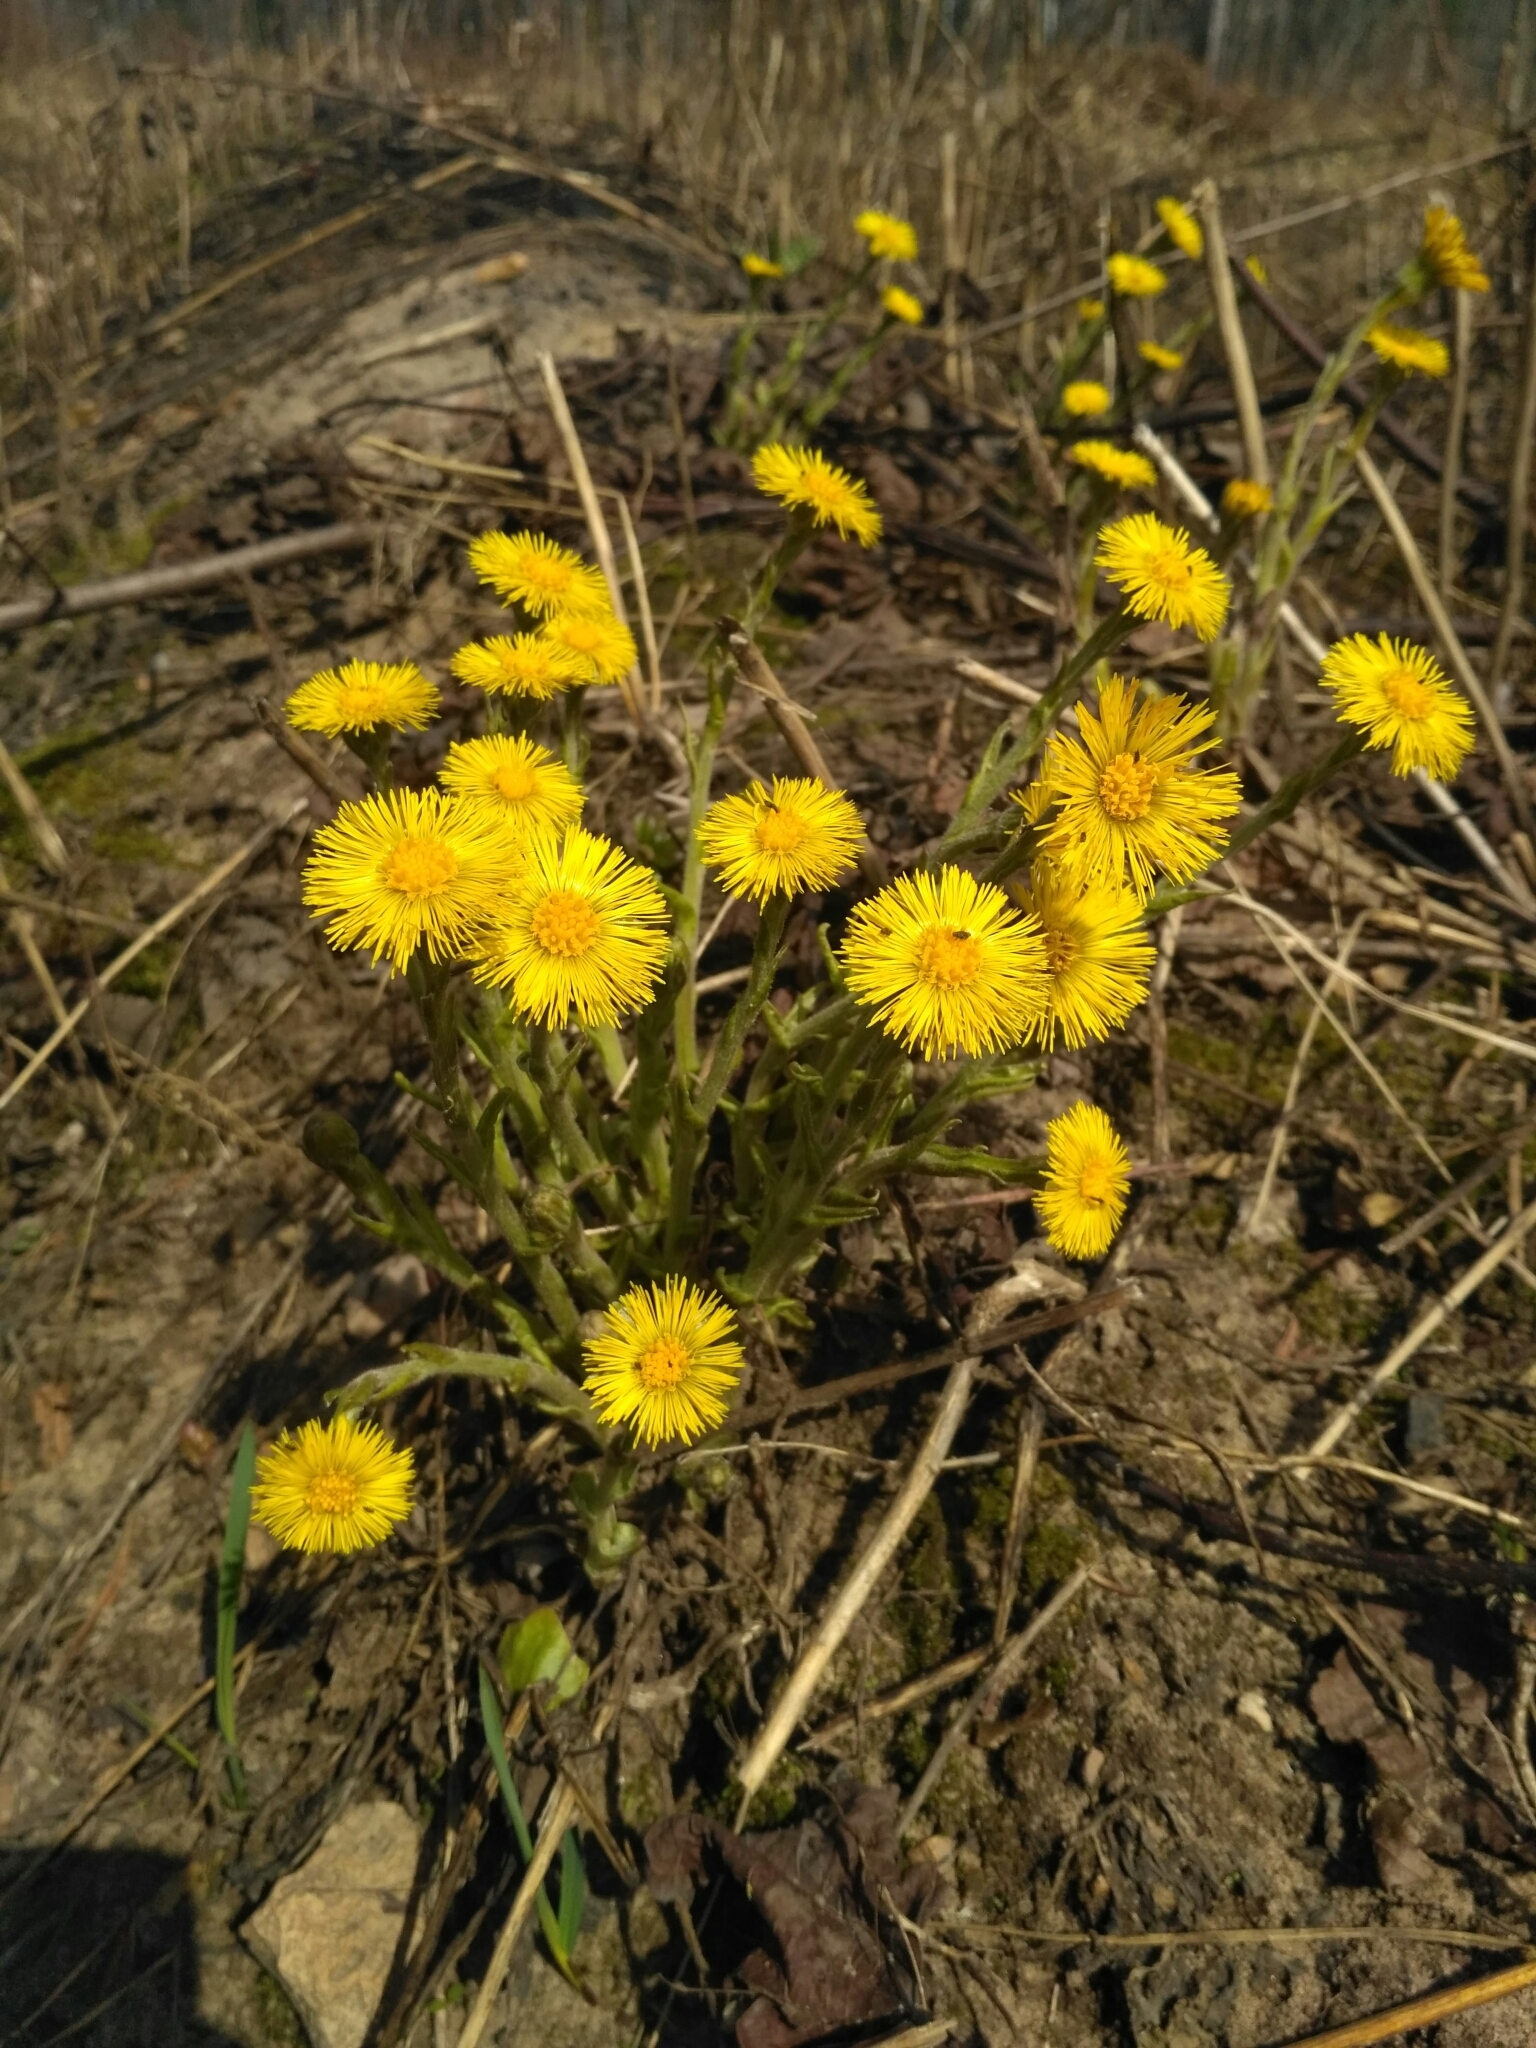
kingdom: Plantae
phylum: Tracheophyta
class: Magnoliopsida
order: Asterales
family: Asteraceae
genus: Tussilago
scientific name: Tussilago farfara
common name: Coltsfoot
